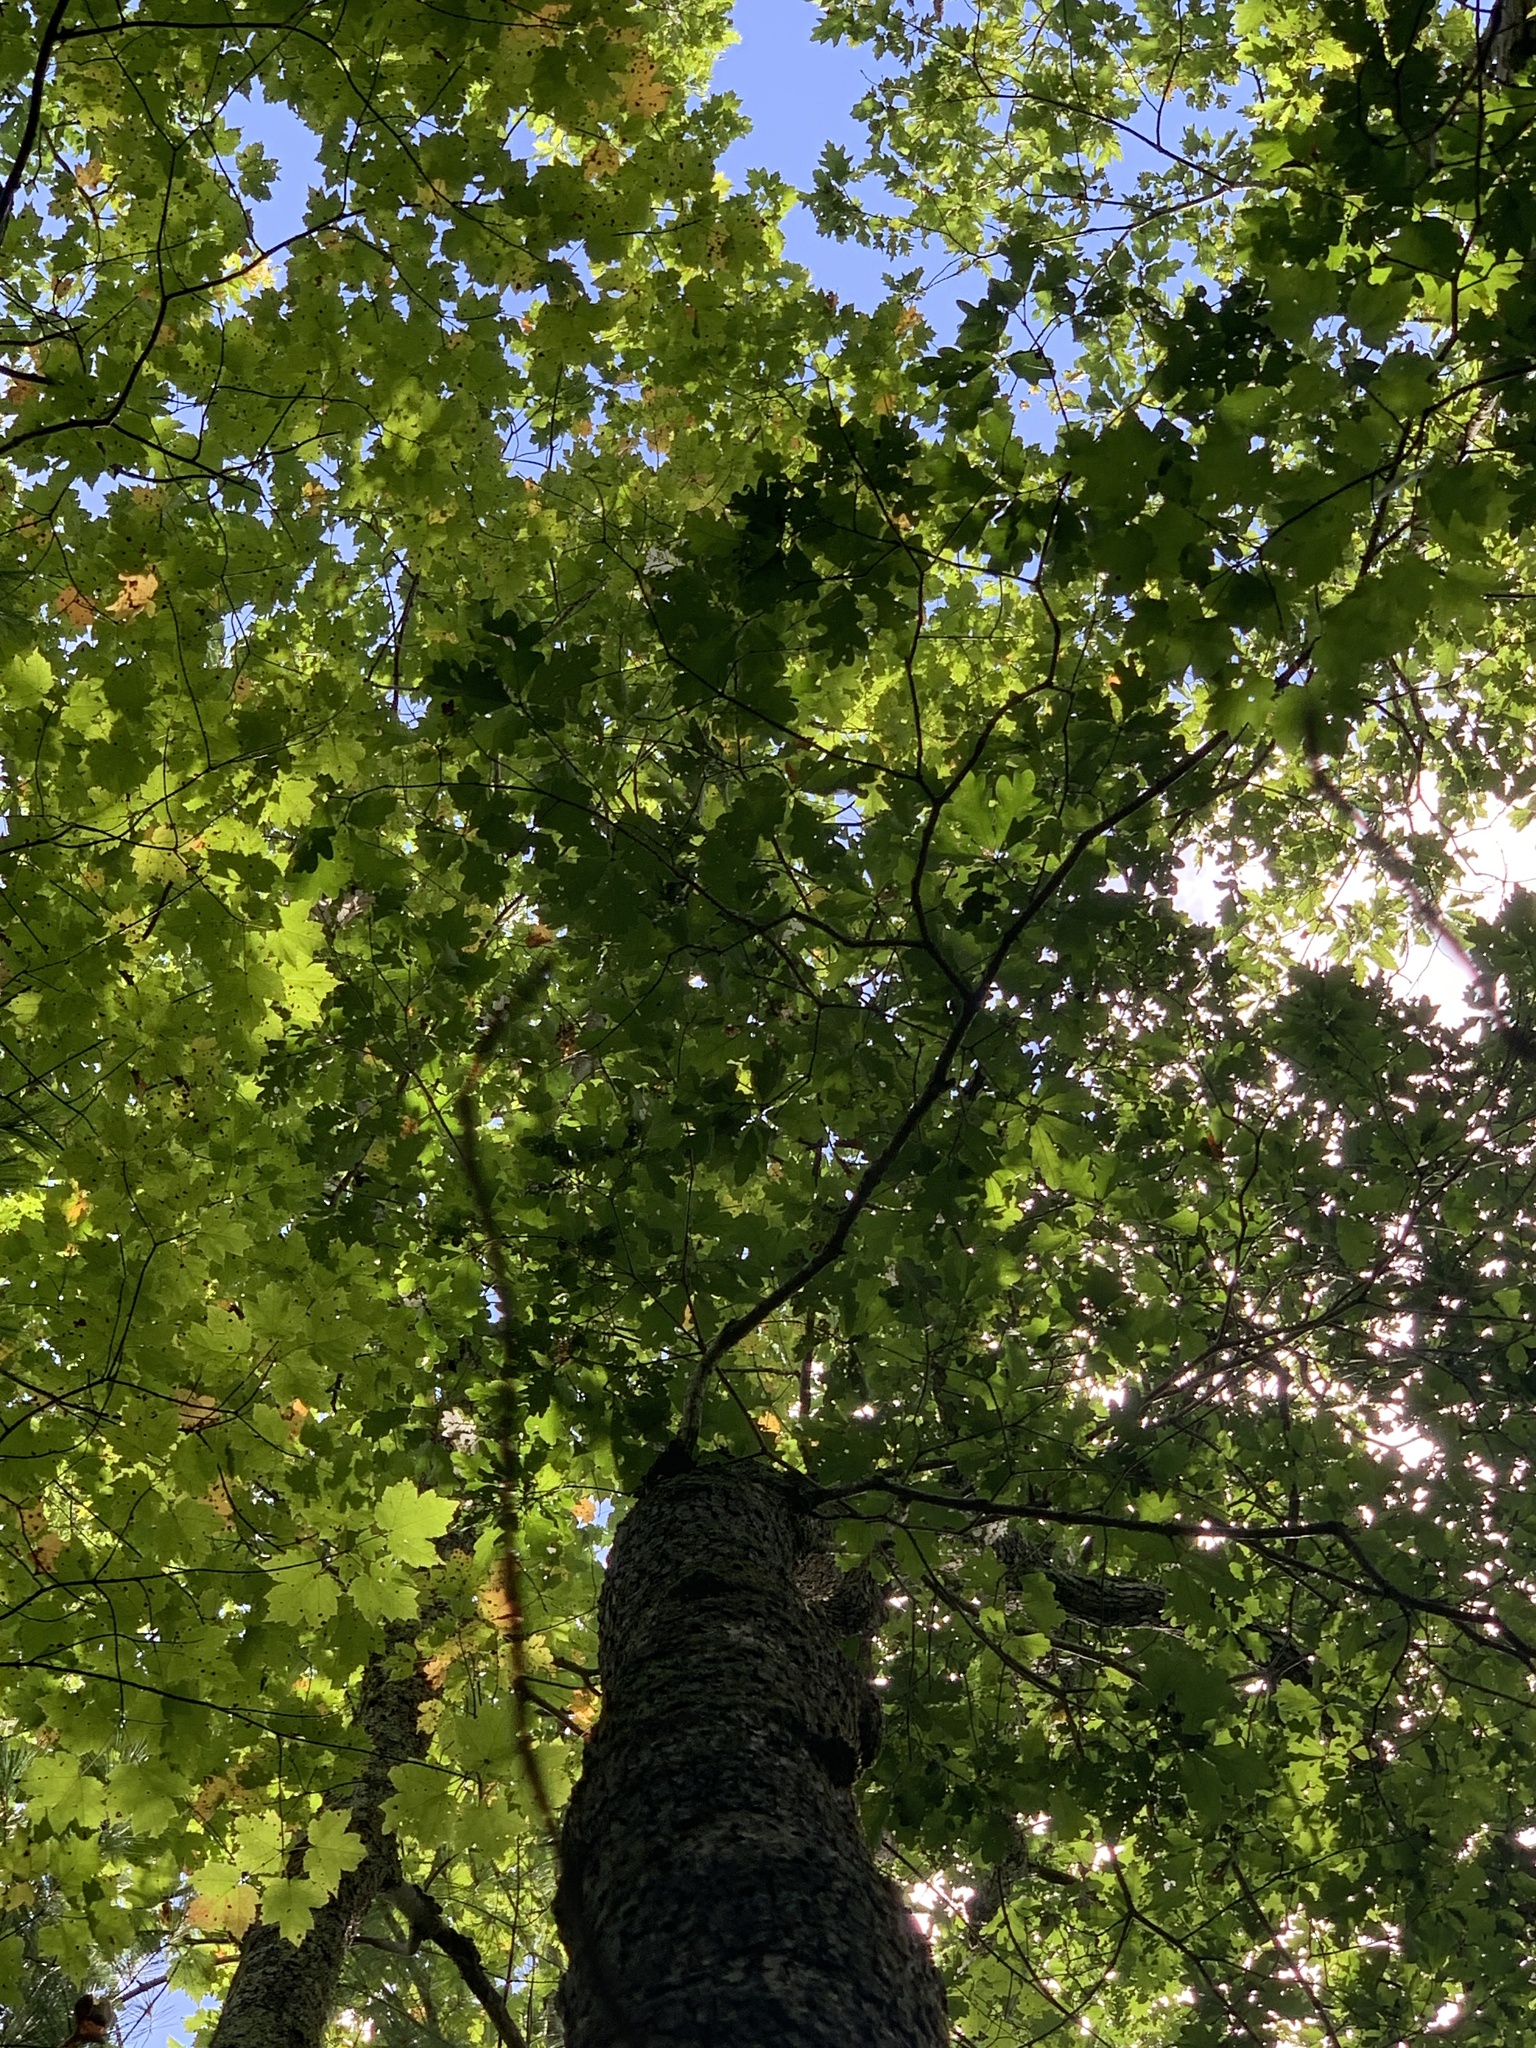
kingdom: Plantae
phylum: Tracheophyta
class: Magnoliopsida
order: Fagales
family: Fagaceae
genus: Quercus
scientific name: Quercus alba
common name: White oak
